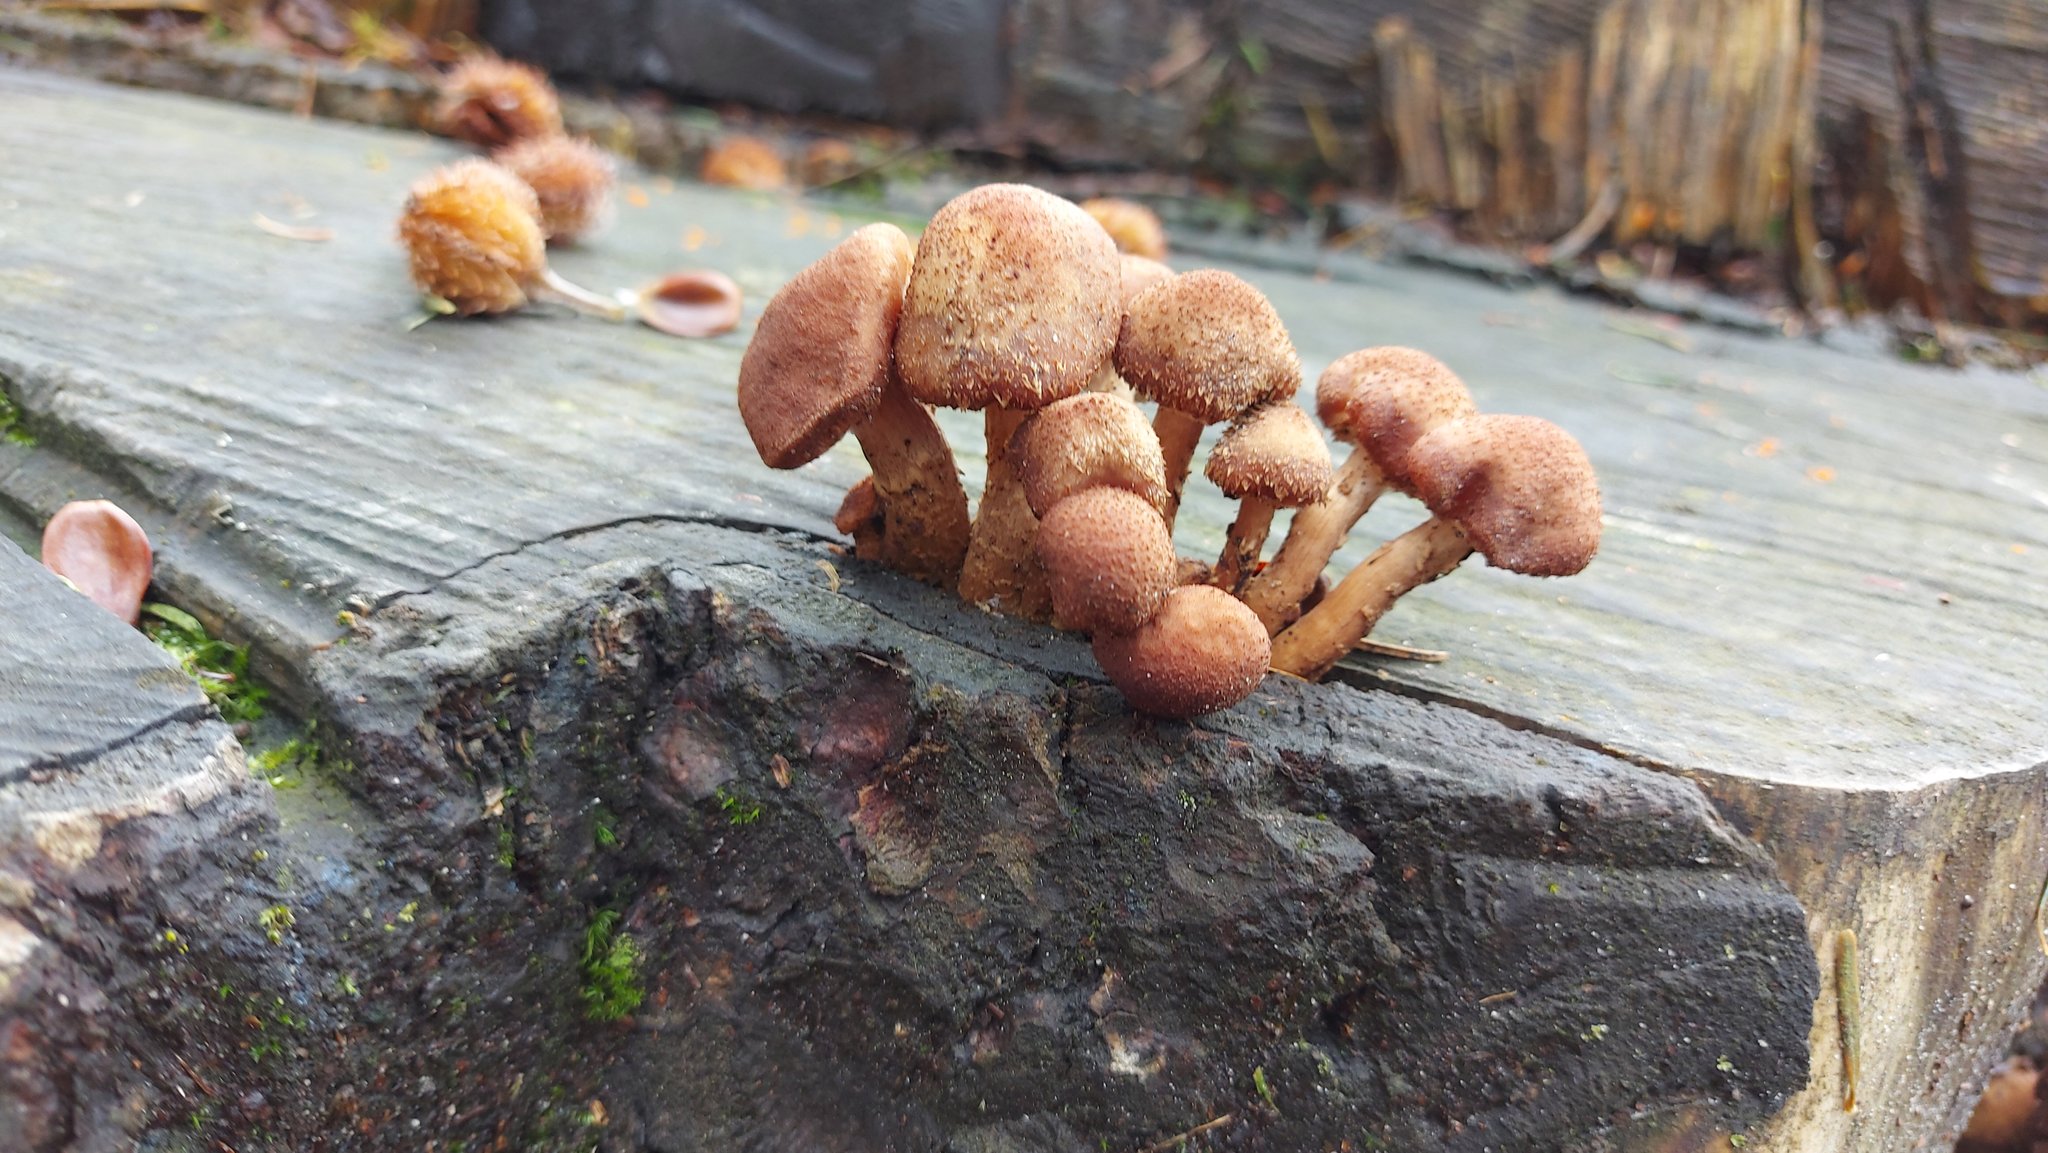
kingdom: Fungi
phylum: Basidiomycota
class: Agaricomycetes
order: Agaricales
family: Physalacriaceae
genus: Armillaria
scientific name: Armillaria ostoyae
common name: Dark honey fungus
